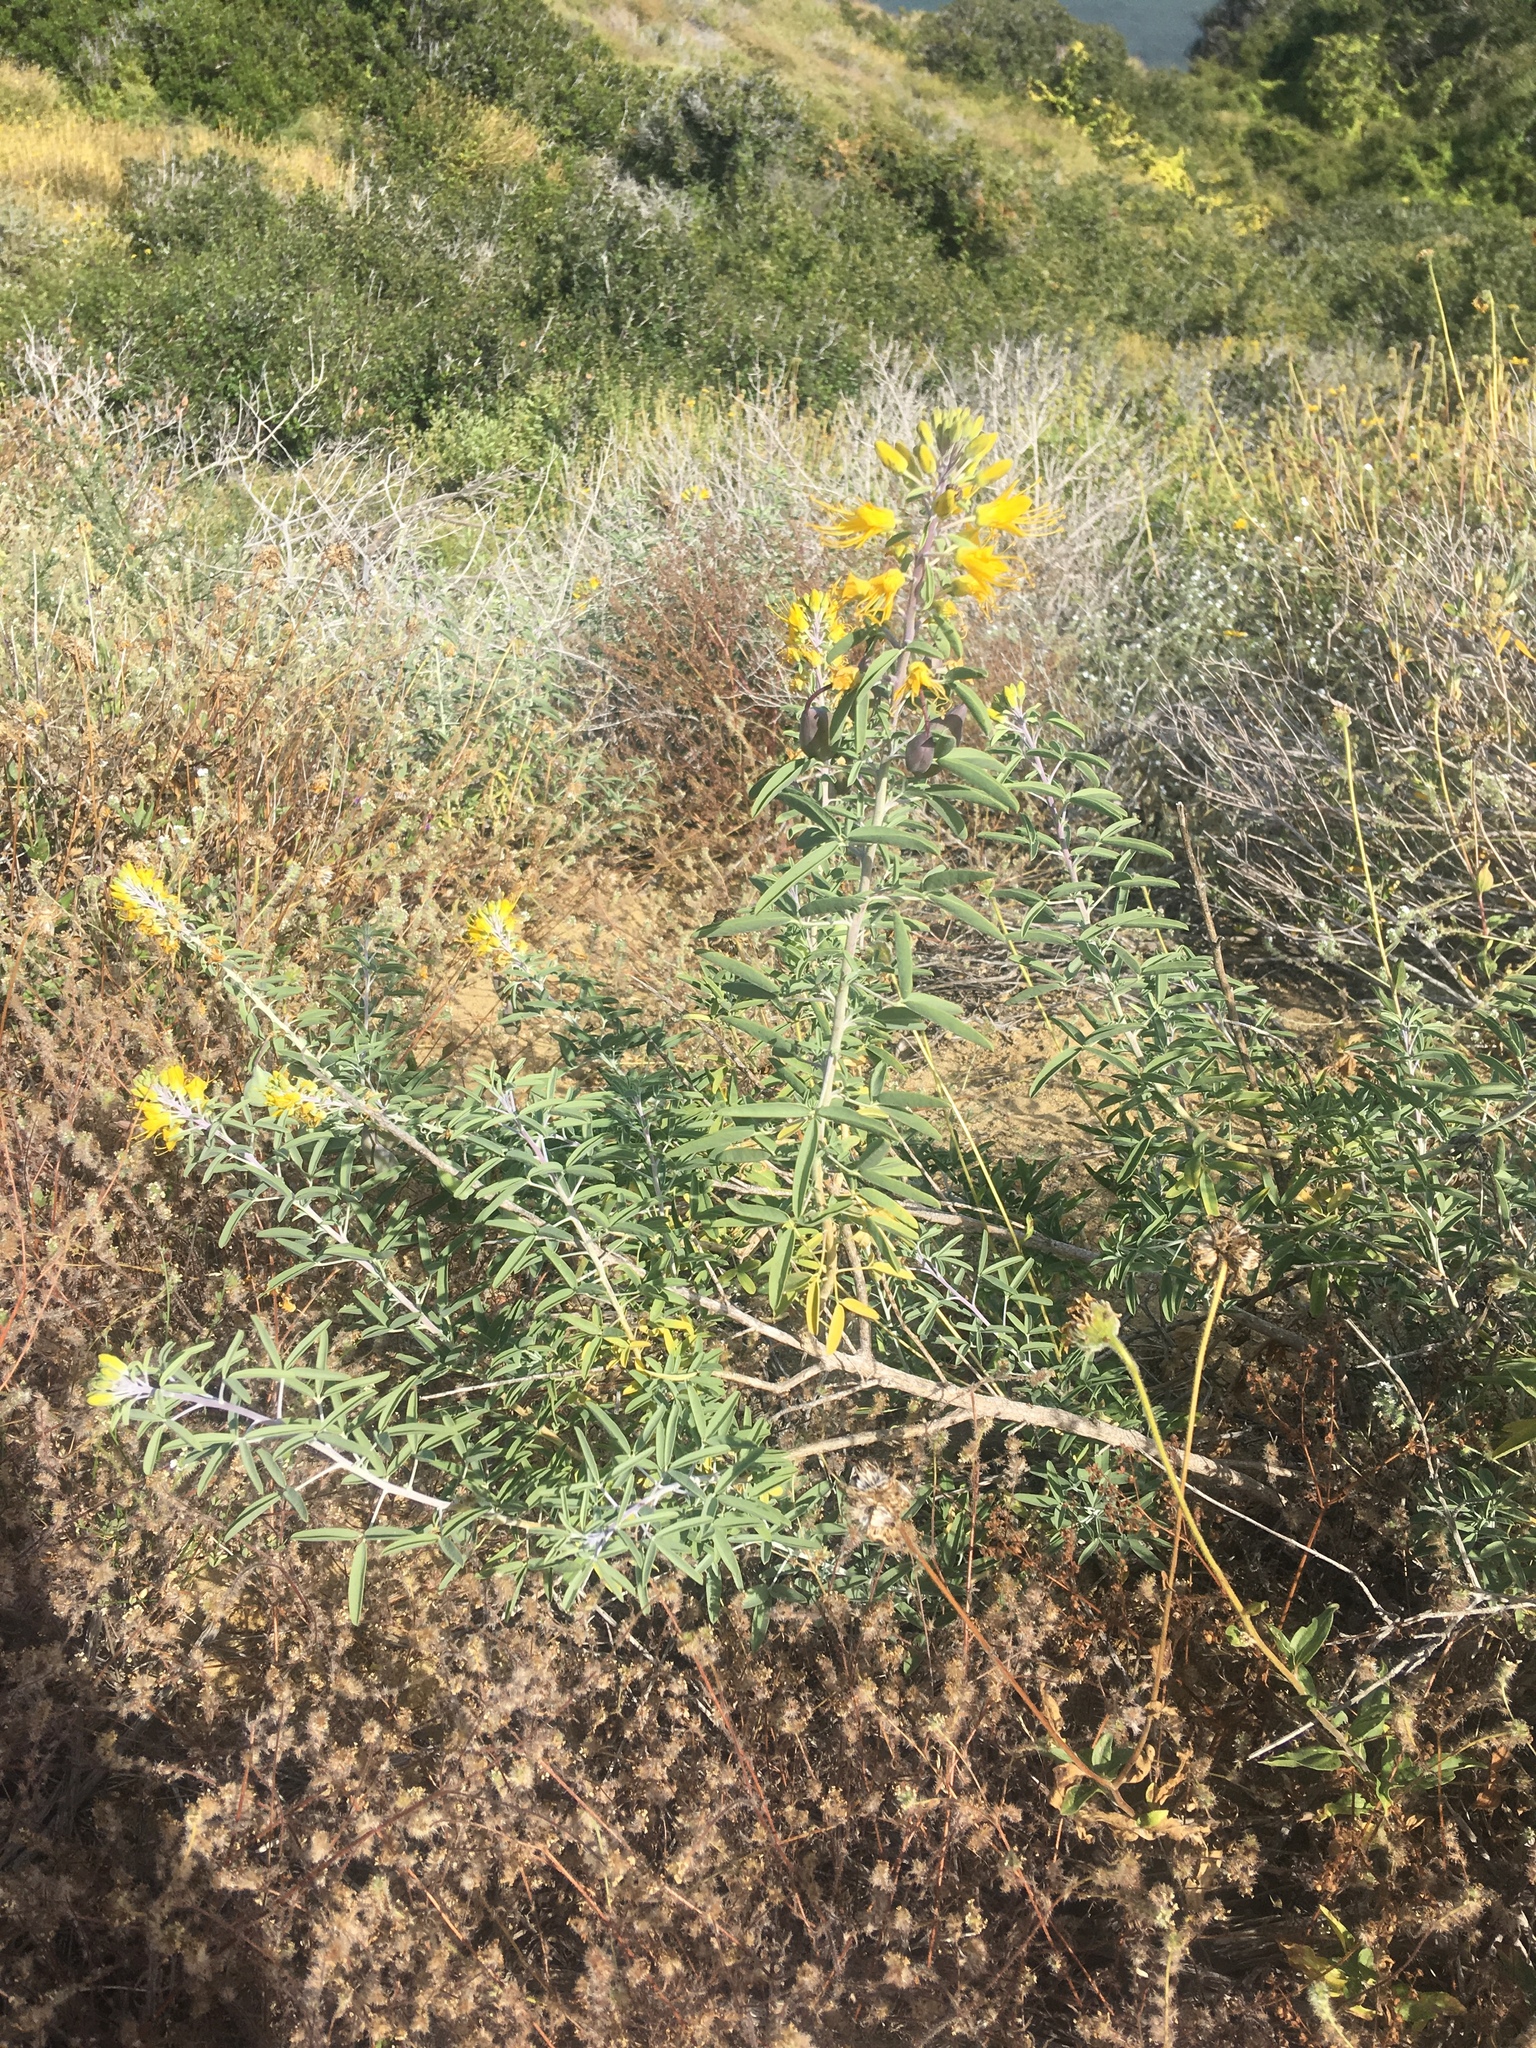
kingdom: Plantae
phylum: Tracheophyta
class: Magnoliopsida
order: Brassicales
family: Cleomaceae
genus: Cleomella
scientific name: Cleomella arborea
